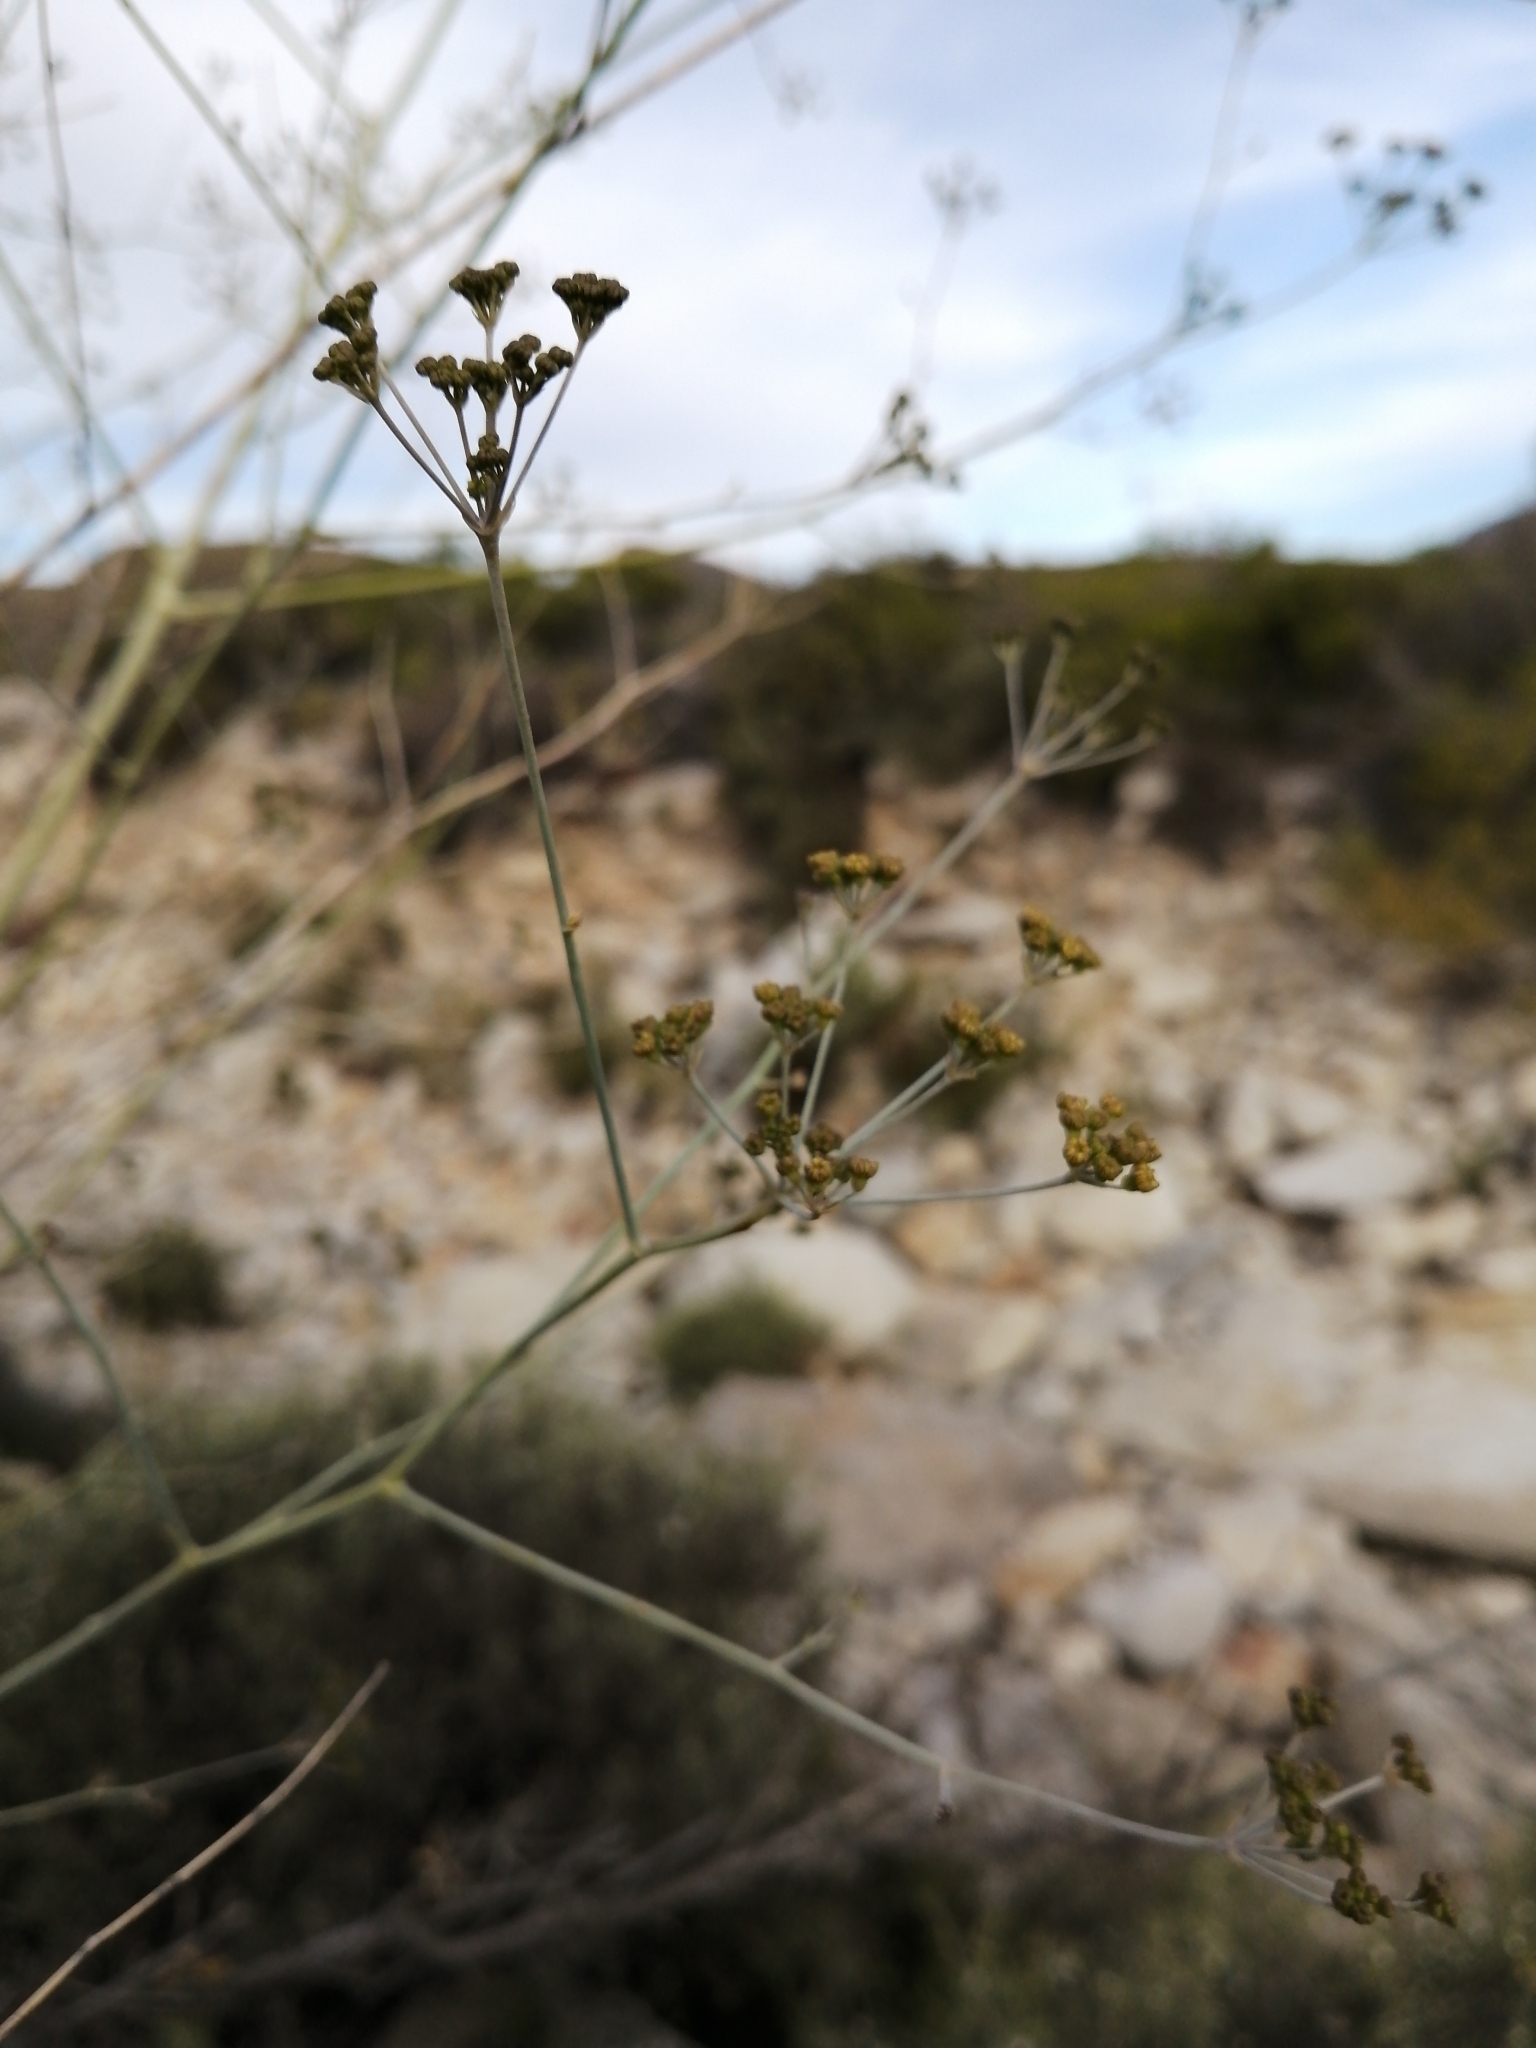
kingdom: Plantae
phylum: Tracheophyta
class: Magnoliopsida
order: Apiales
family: Apiaceae
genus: Anginon
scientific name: Anginon swellendamense
